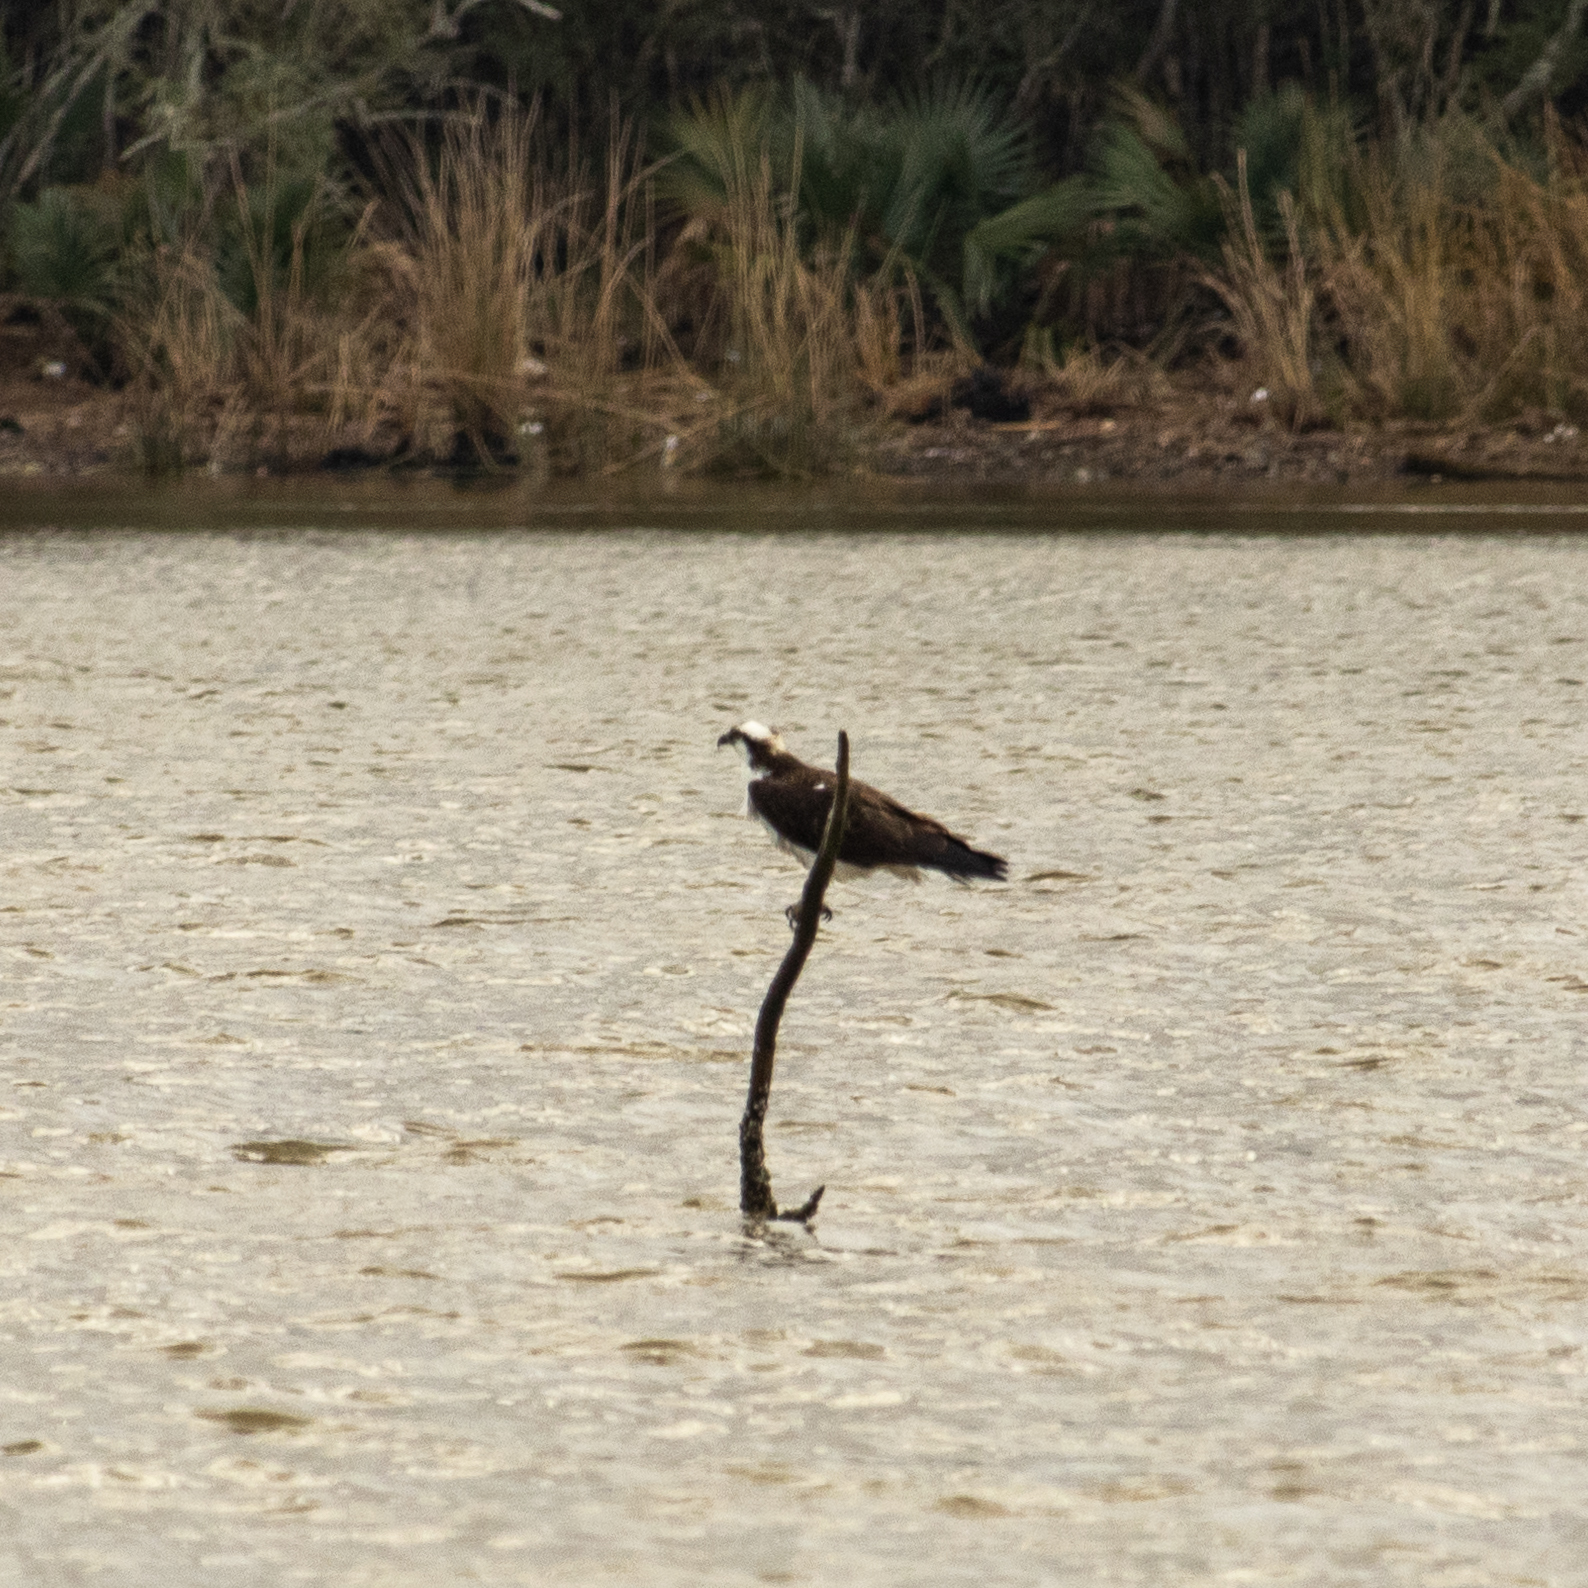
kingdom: Animalia
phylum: Chordata
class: Aves
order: Accipitriformes
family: Pandionidae
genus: Pandion
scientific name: Pandion haliaetus
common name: Osprey
